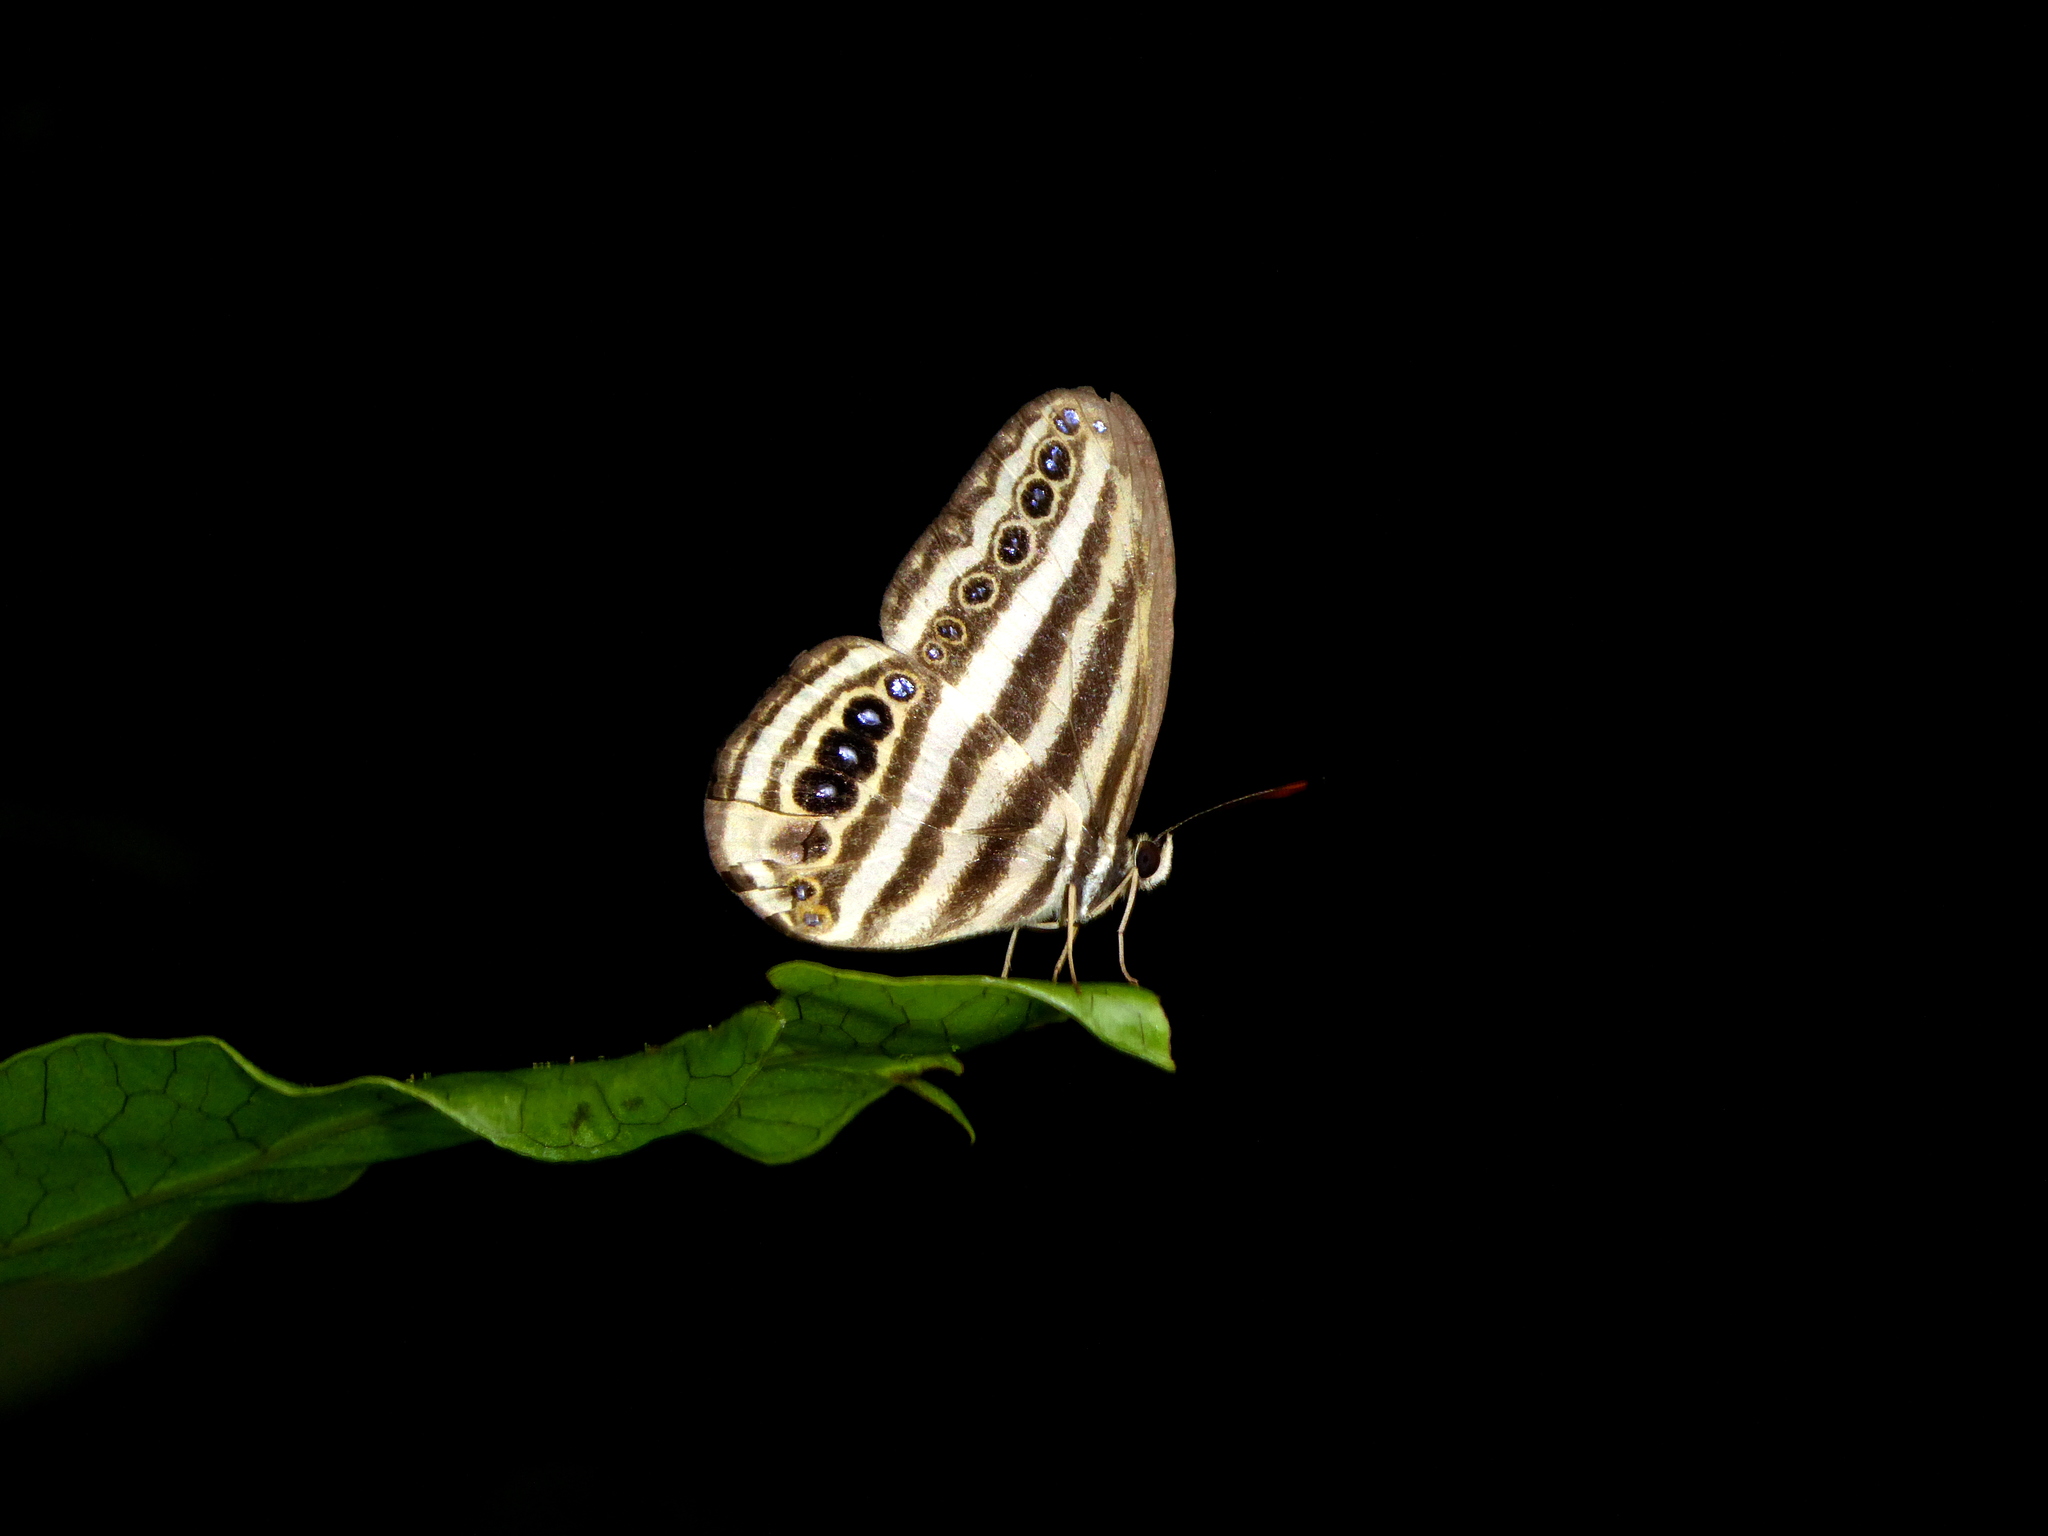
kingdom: Animalia
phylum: Arthropoda
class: Insecta
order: Lepidoptera
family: Nymphalidae
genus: Ragadia
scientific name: Ragadia luzonia
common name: Luzon striped ringlet
